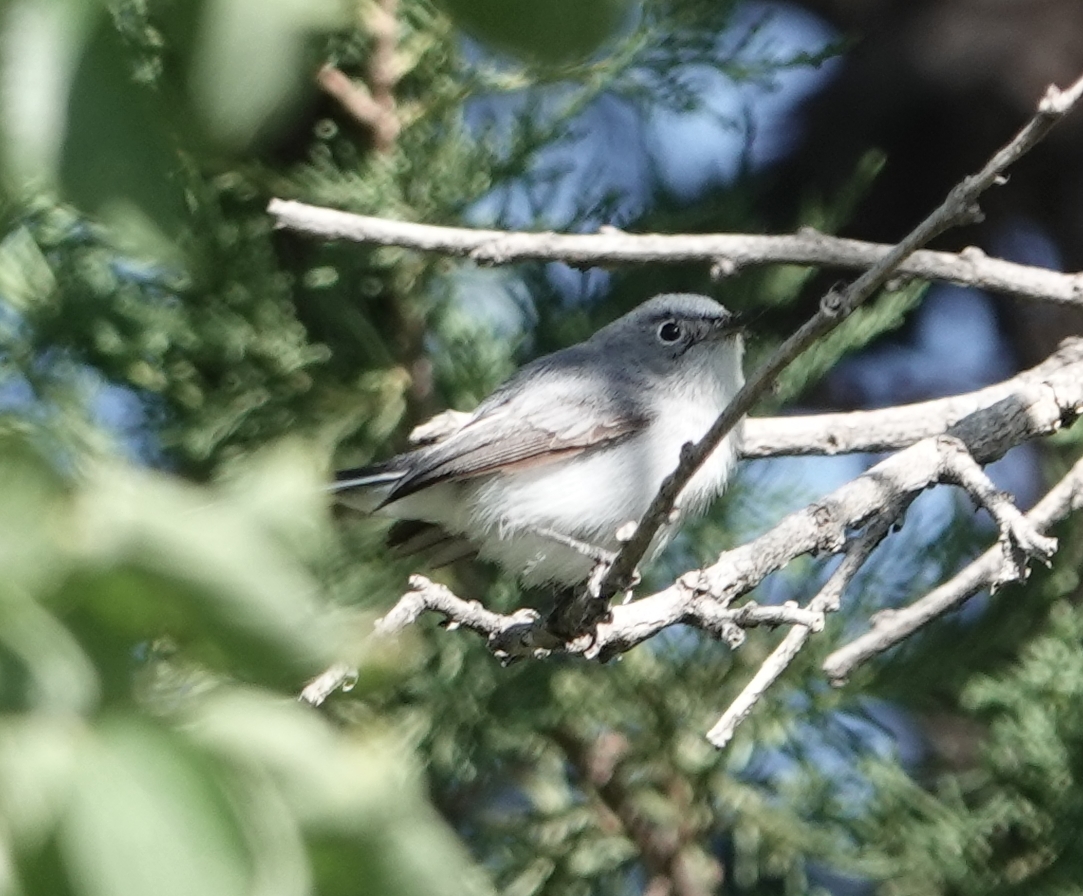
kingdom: Animalia
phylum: Chordata
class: Aves
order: Passeriformes
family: Polioptilidae
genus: Polioptila
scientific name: Polioptila caerulea
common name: Blue-gray gnatcatcher
